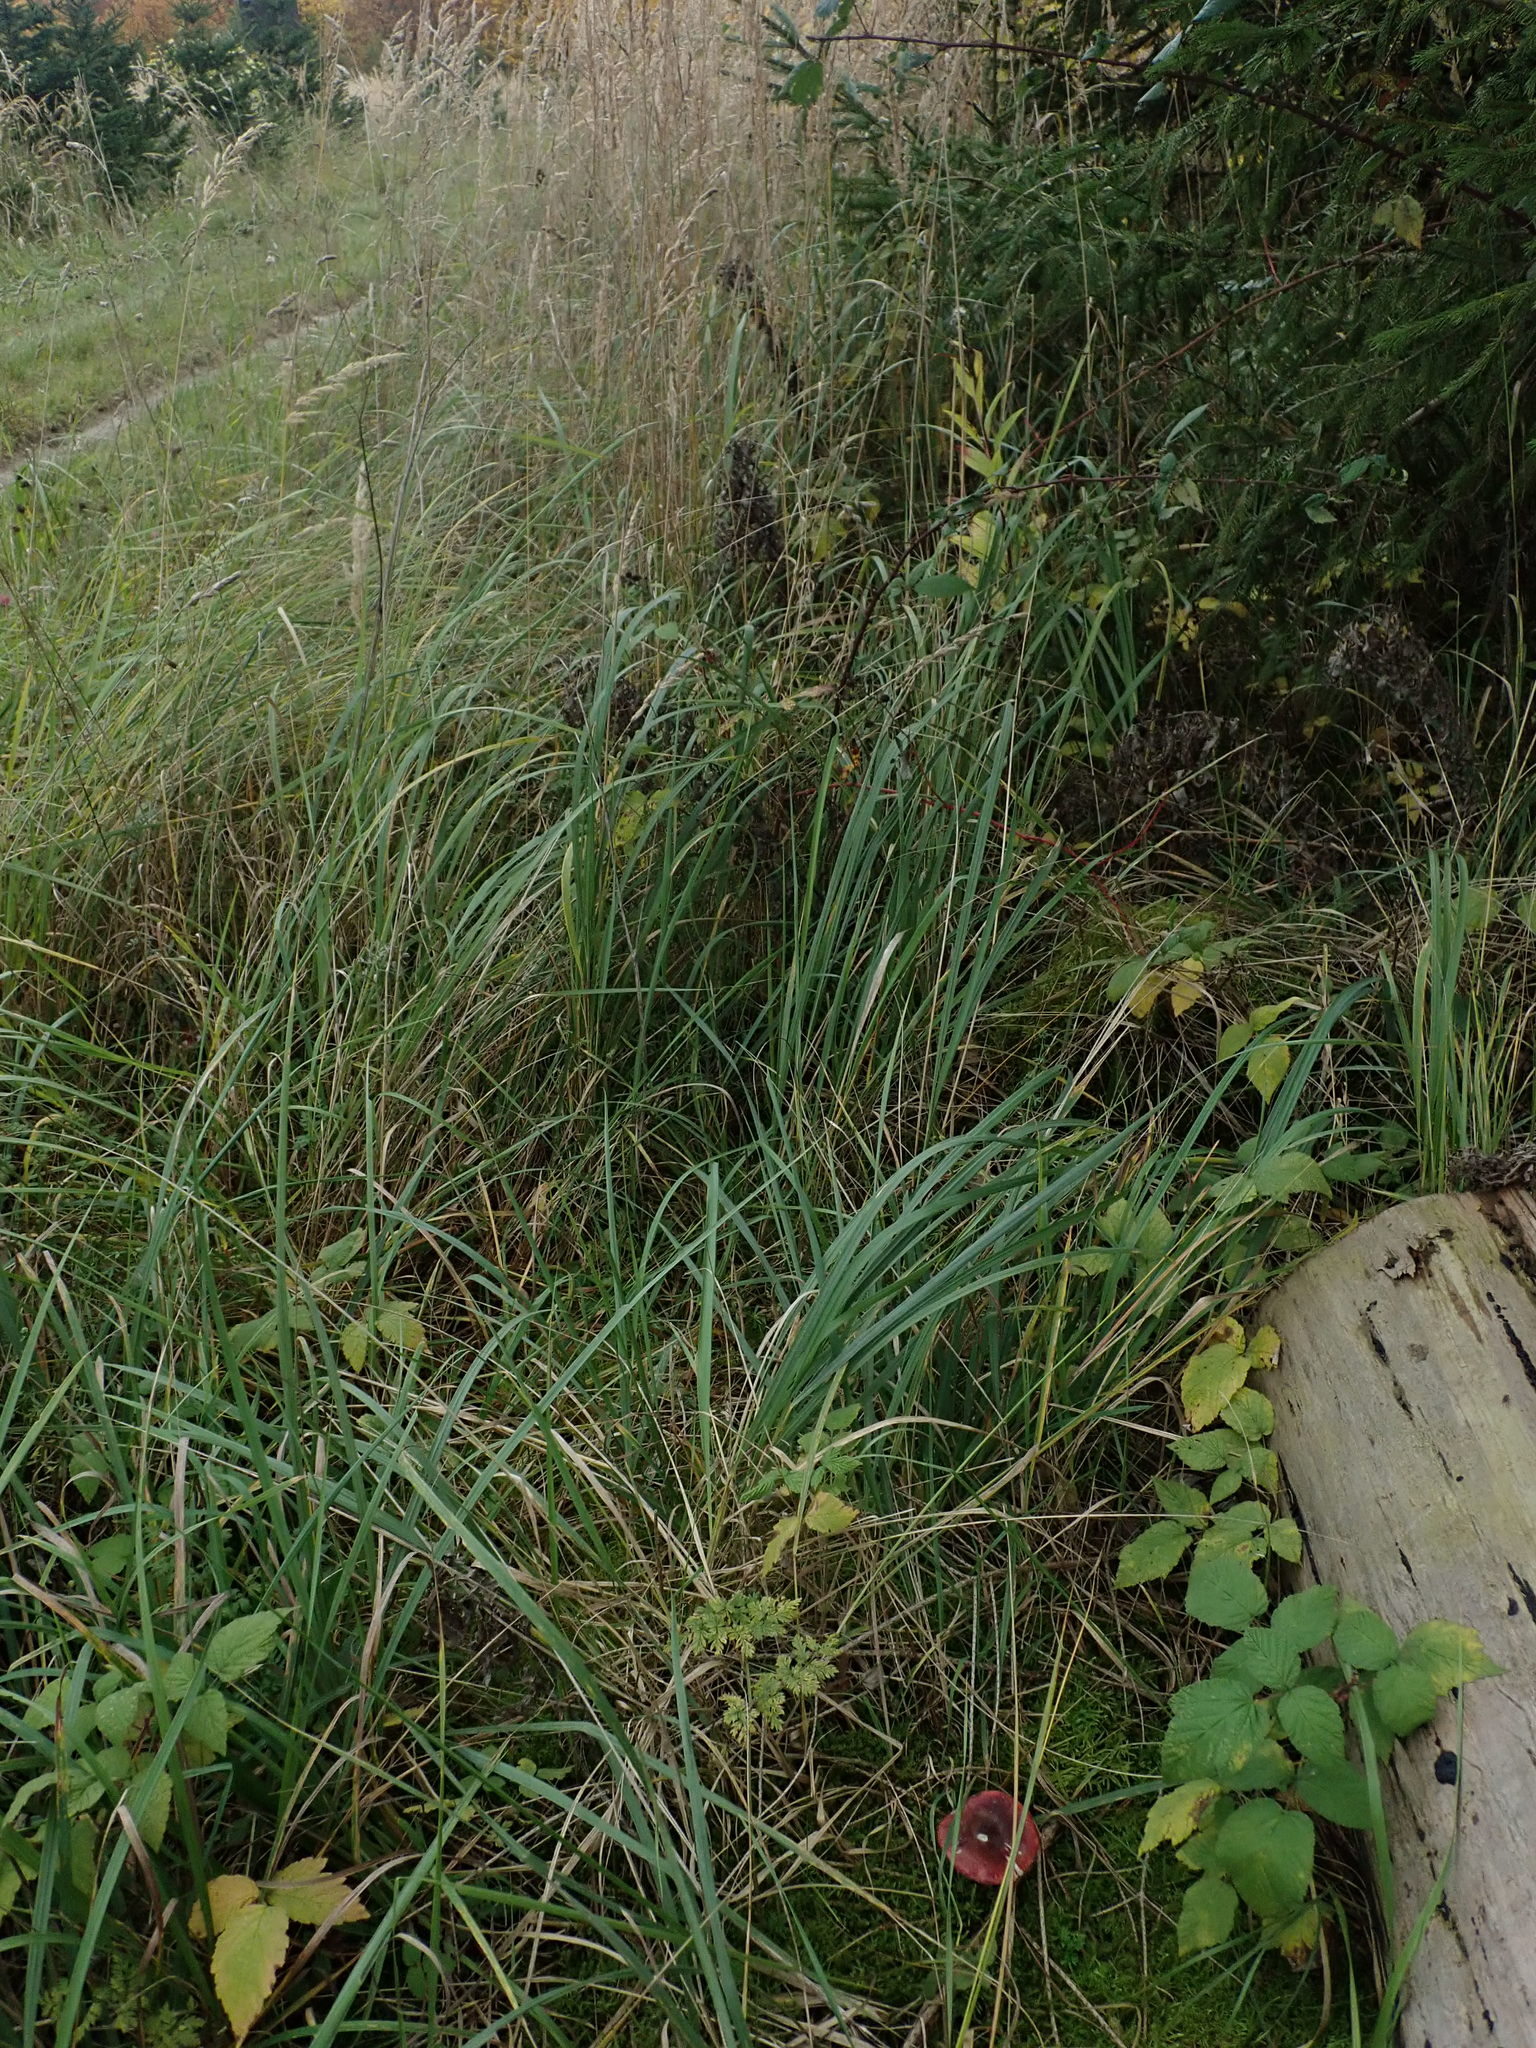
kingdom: Fungi
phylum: Basidiomycota
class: Agaricomycetes
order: Russulales
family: Russulaceae
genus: Russula
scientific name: Russula queletii
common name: Fruity brittlegill
